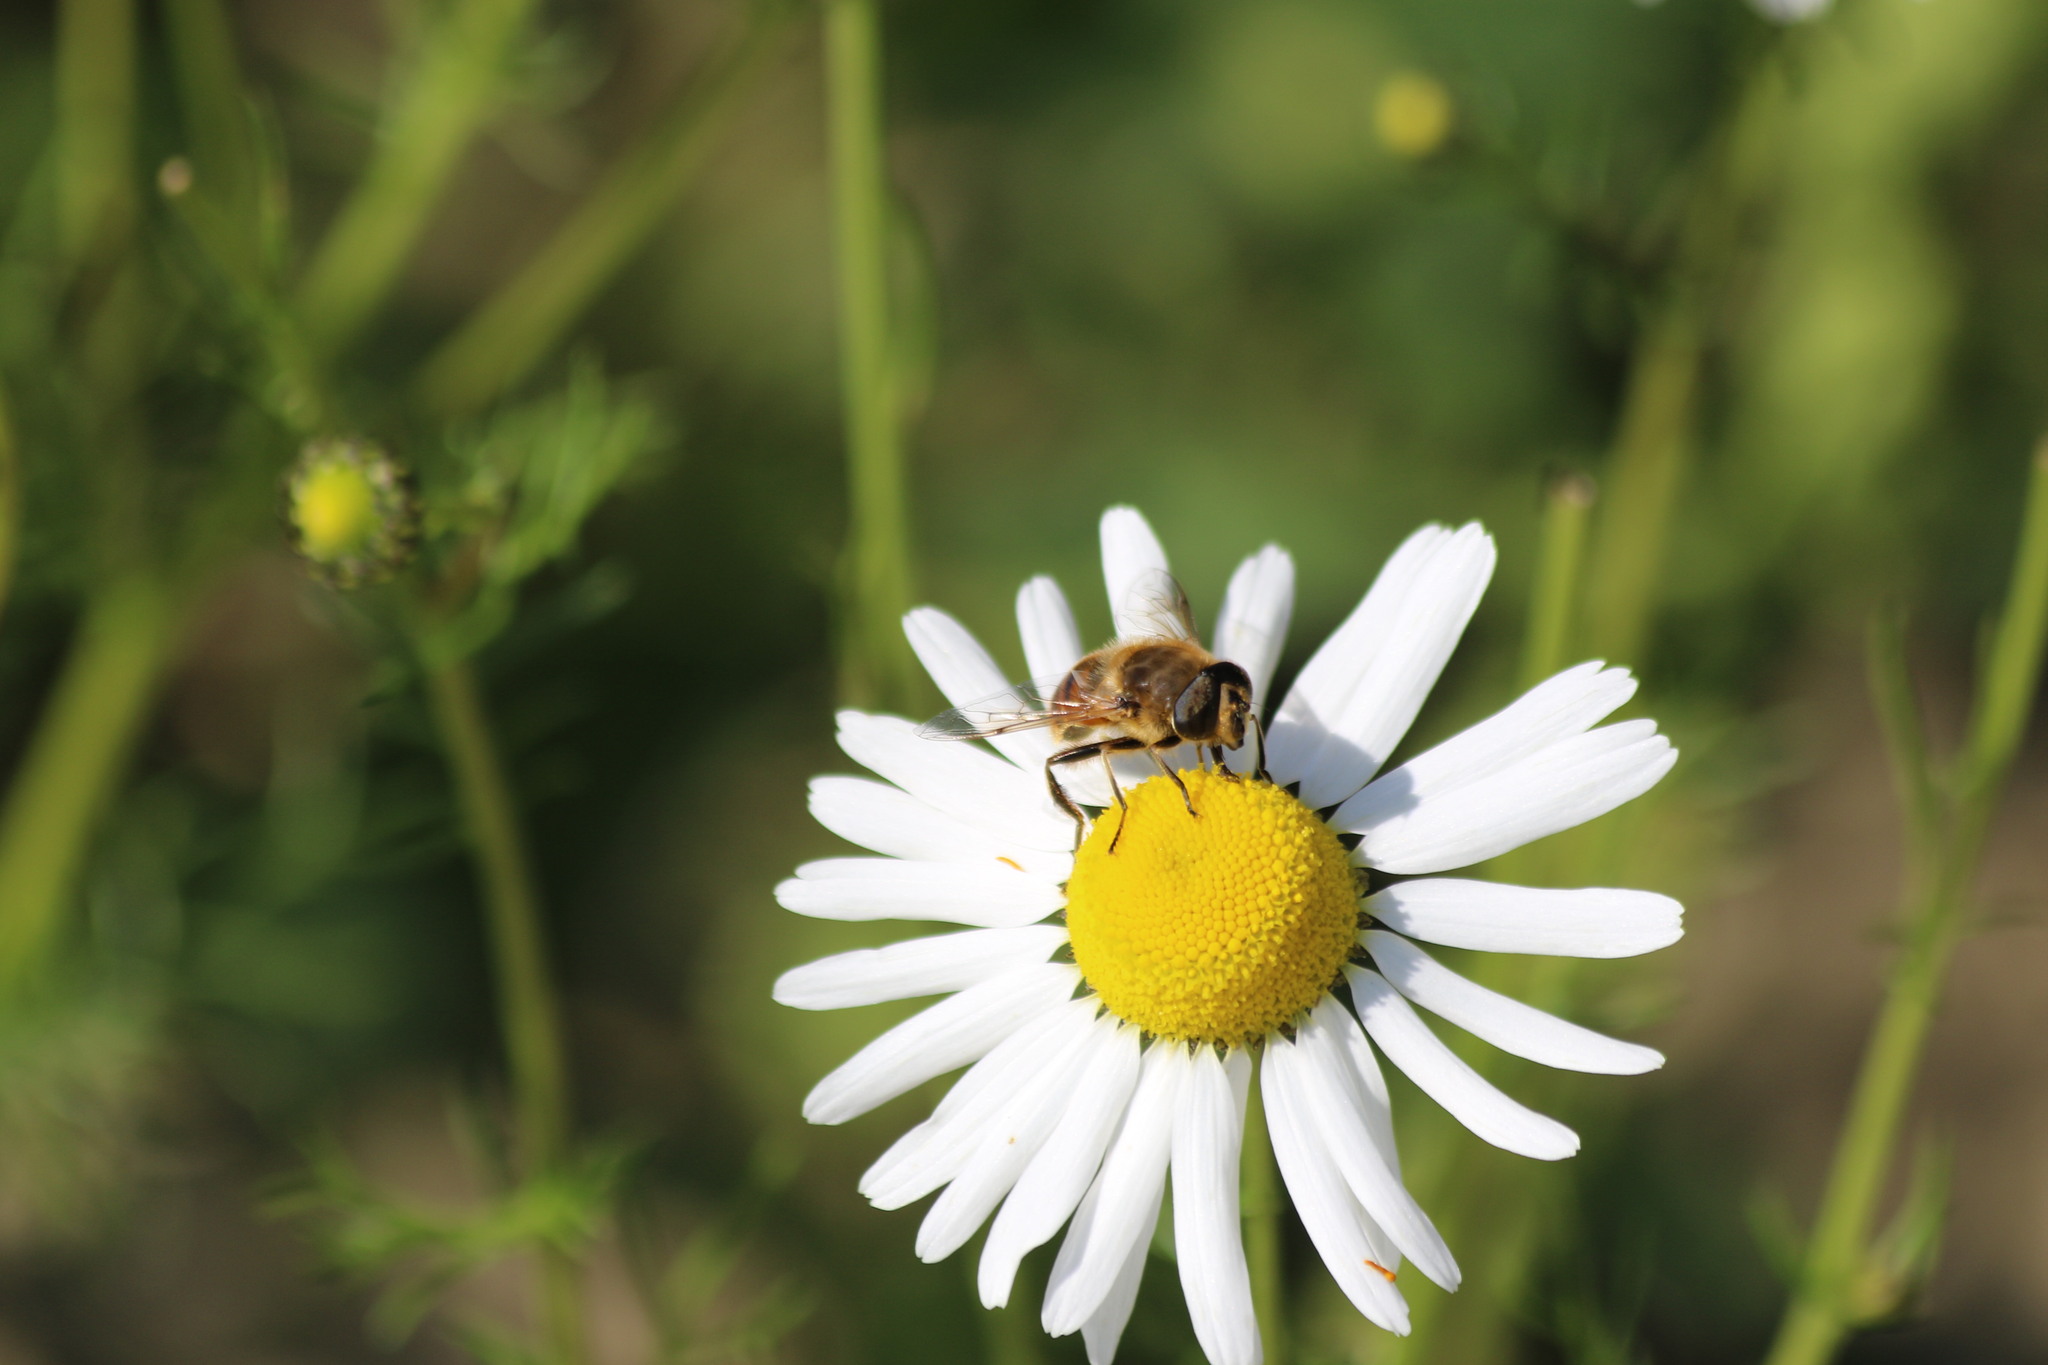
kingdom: Animalia
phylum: Arthropoda
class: Insecta
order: Diptera
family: Syrphidae
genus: Eristalis
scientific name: Eristalis tenax
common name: Drone fly
